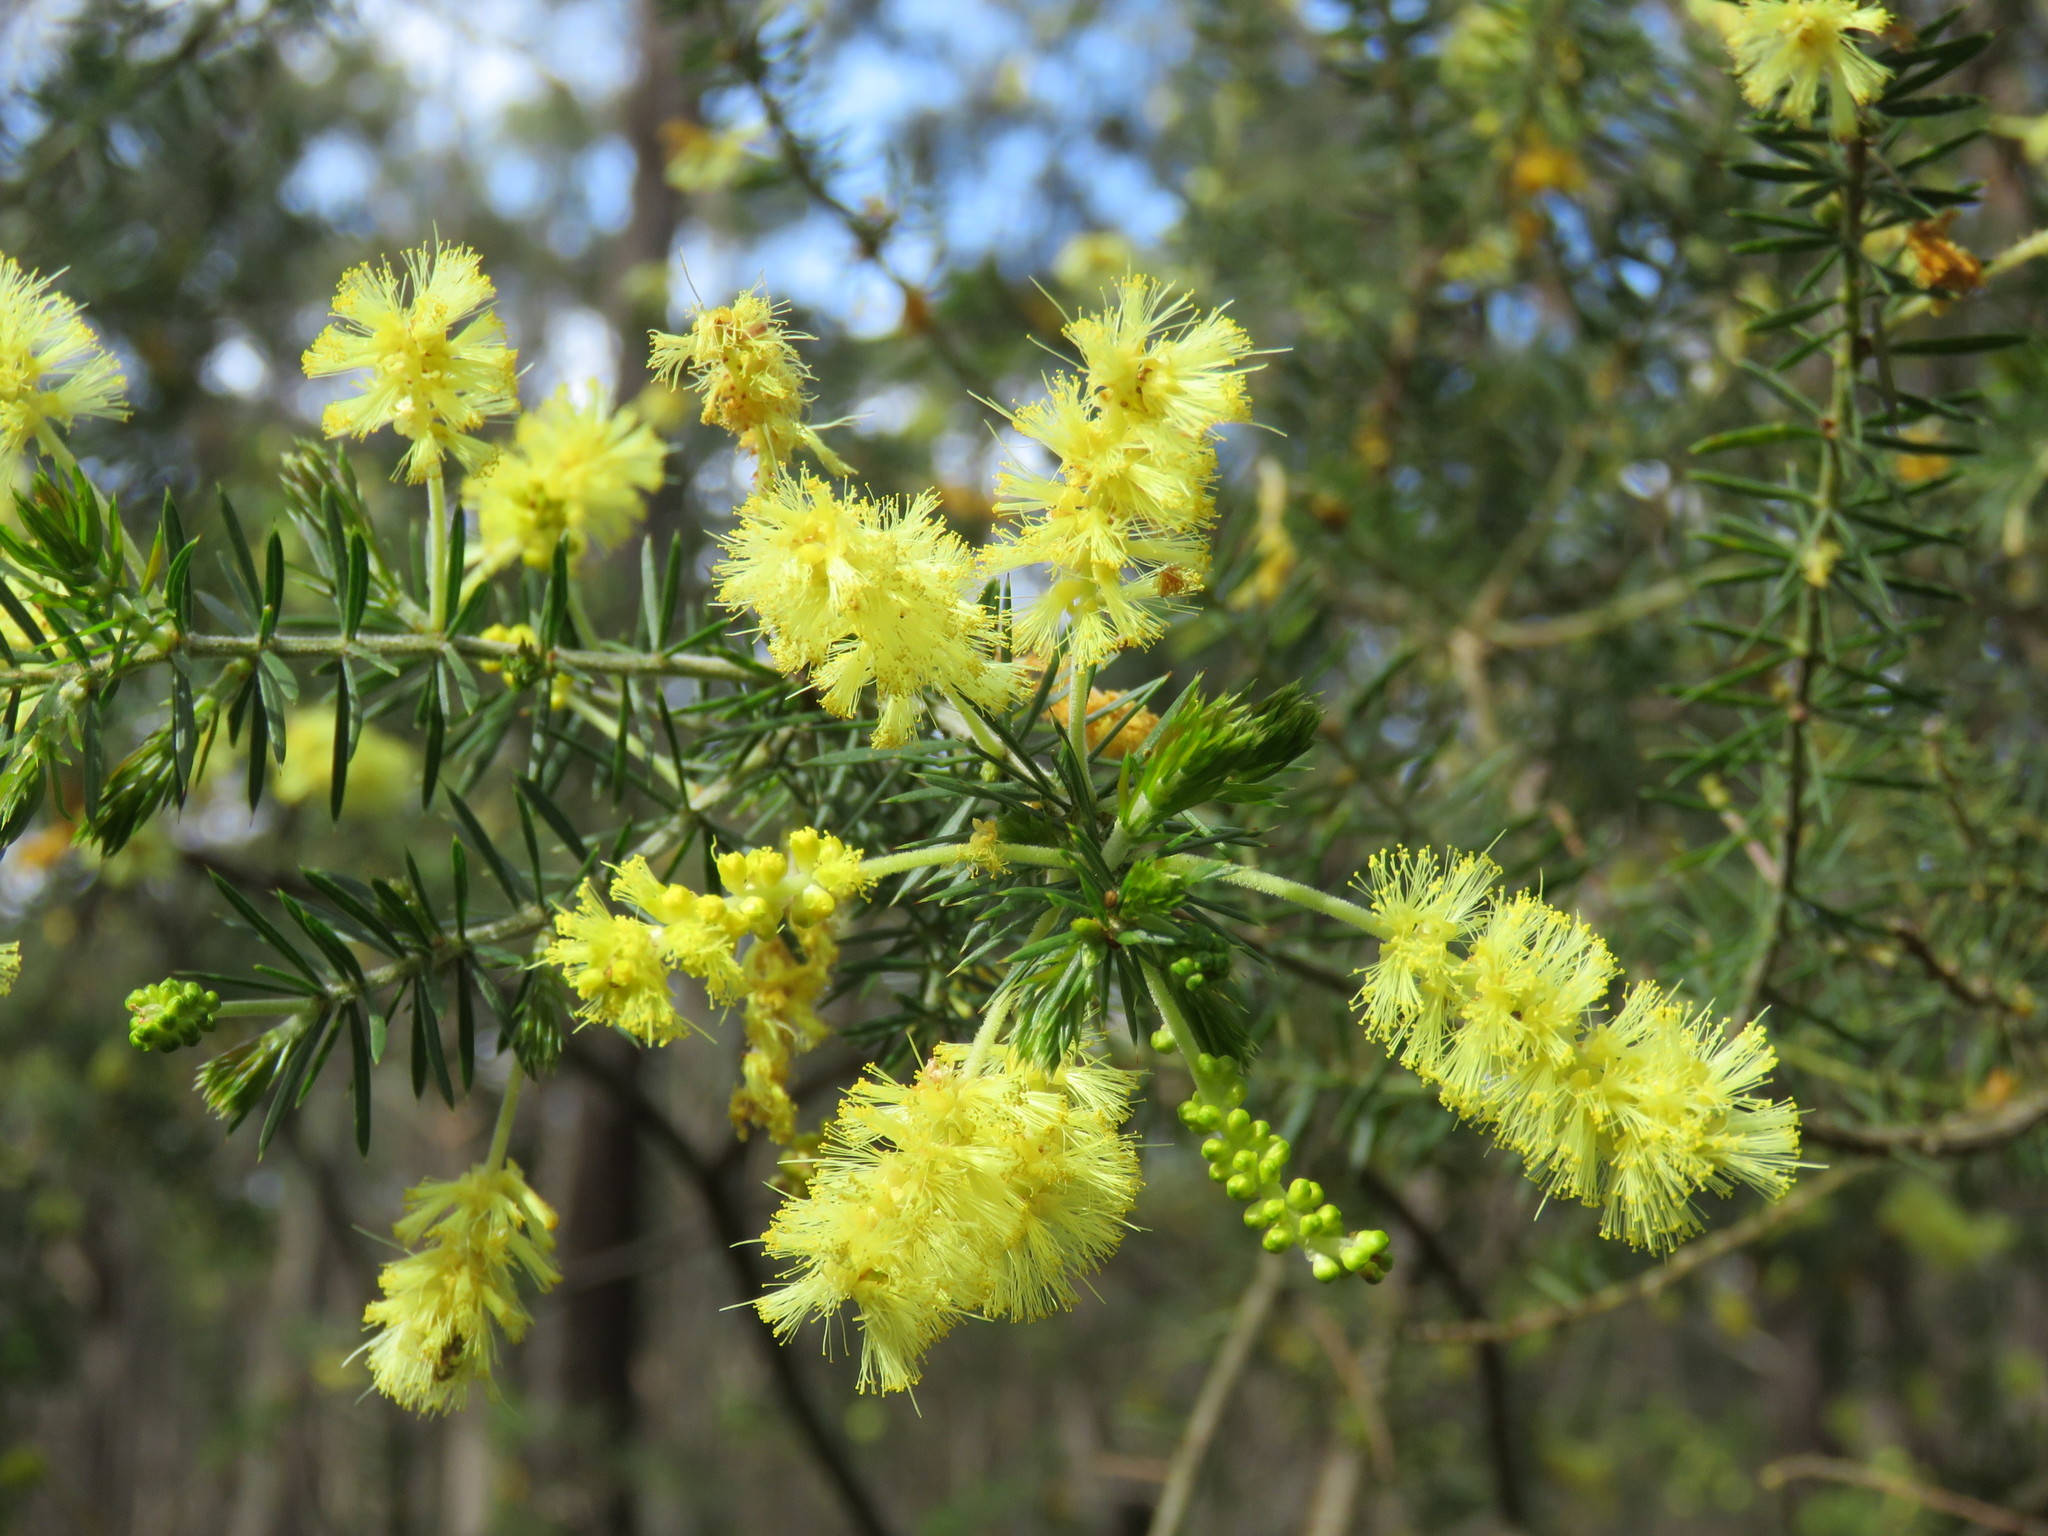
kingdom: Plantae
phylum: Tracheophyta
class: Magnoliopsida
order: Fabales
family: Fabaceae
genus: Acacia
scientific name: Acacia verticillata
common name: Prickly moses
